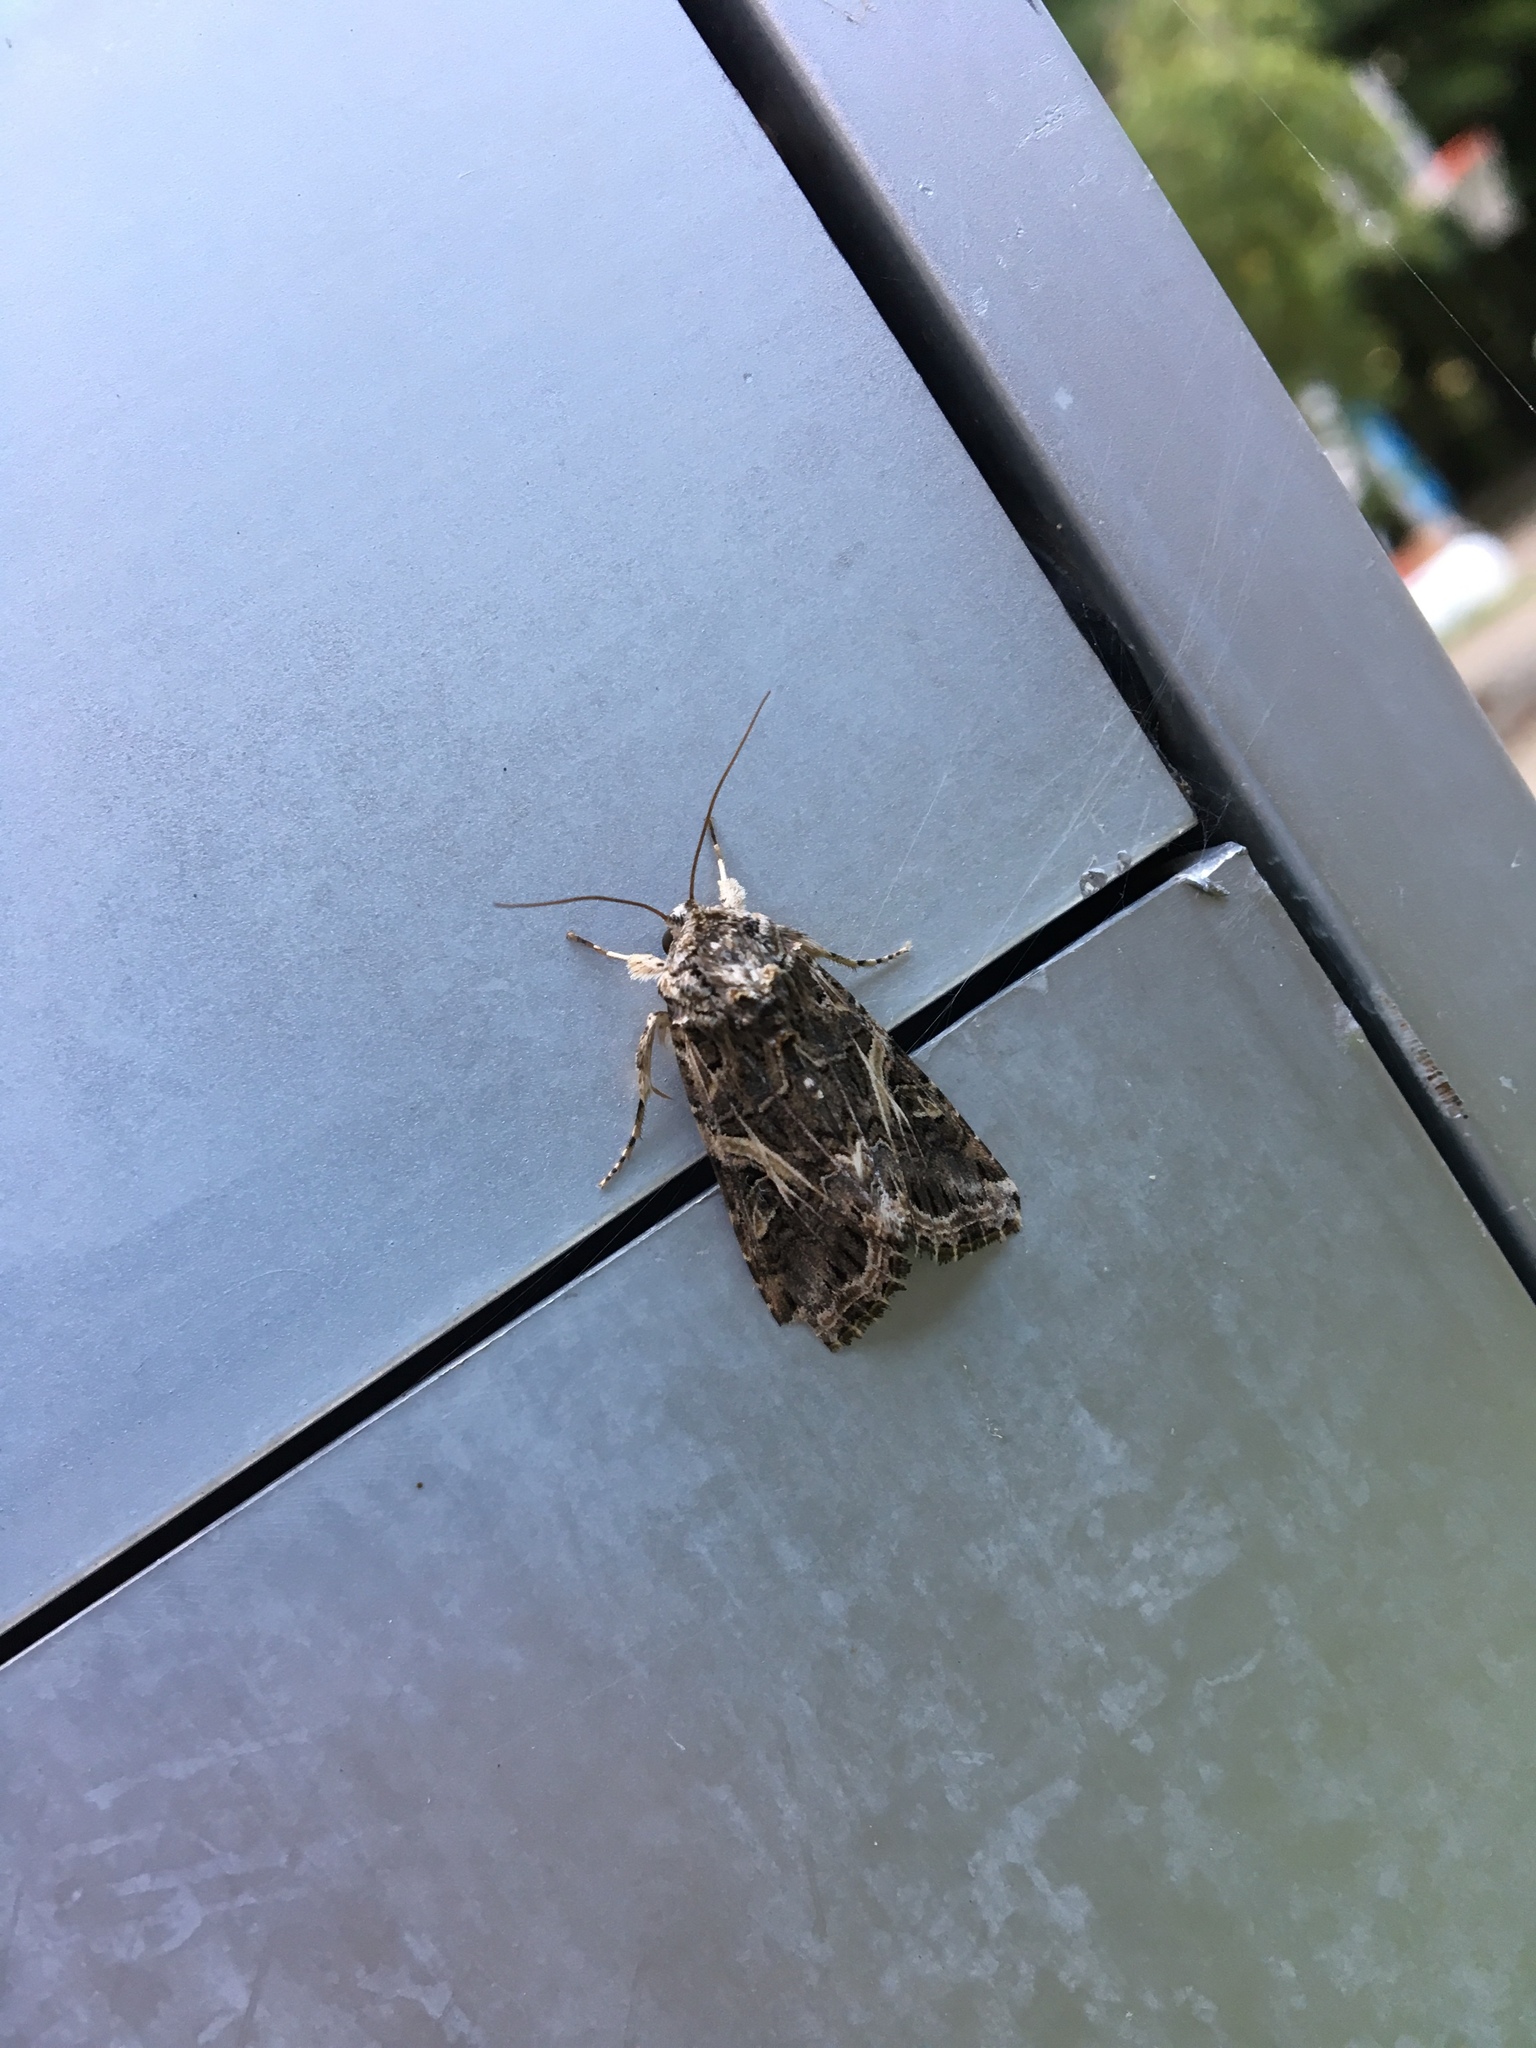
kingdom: Animalia
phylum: Arthropoda
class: Insecta
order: Lepidoptera
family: Noctuidae
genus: Spodoptera
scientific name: Spodoptera ornithogalli
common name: Yellow-striped armyworm
